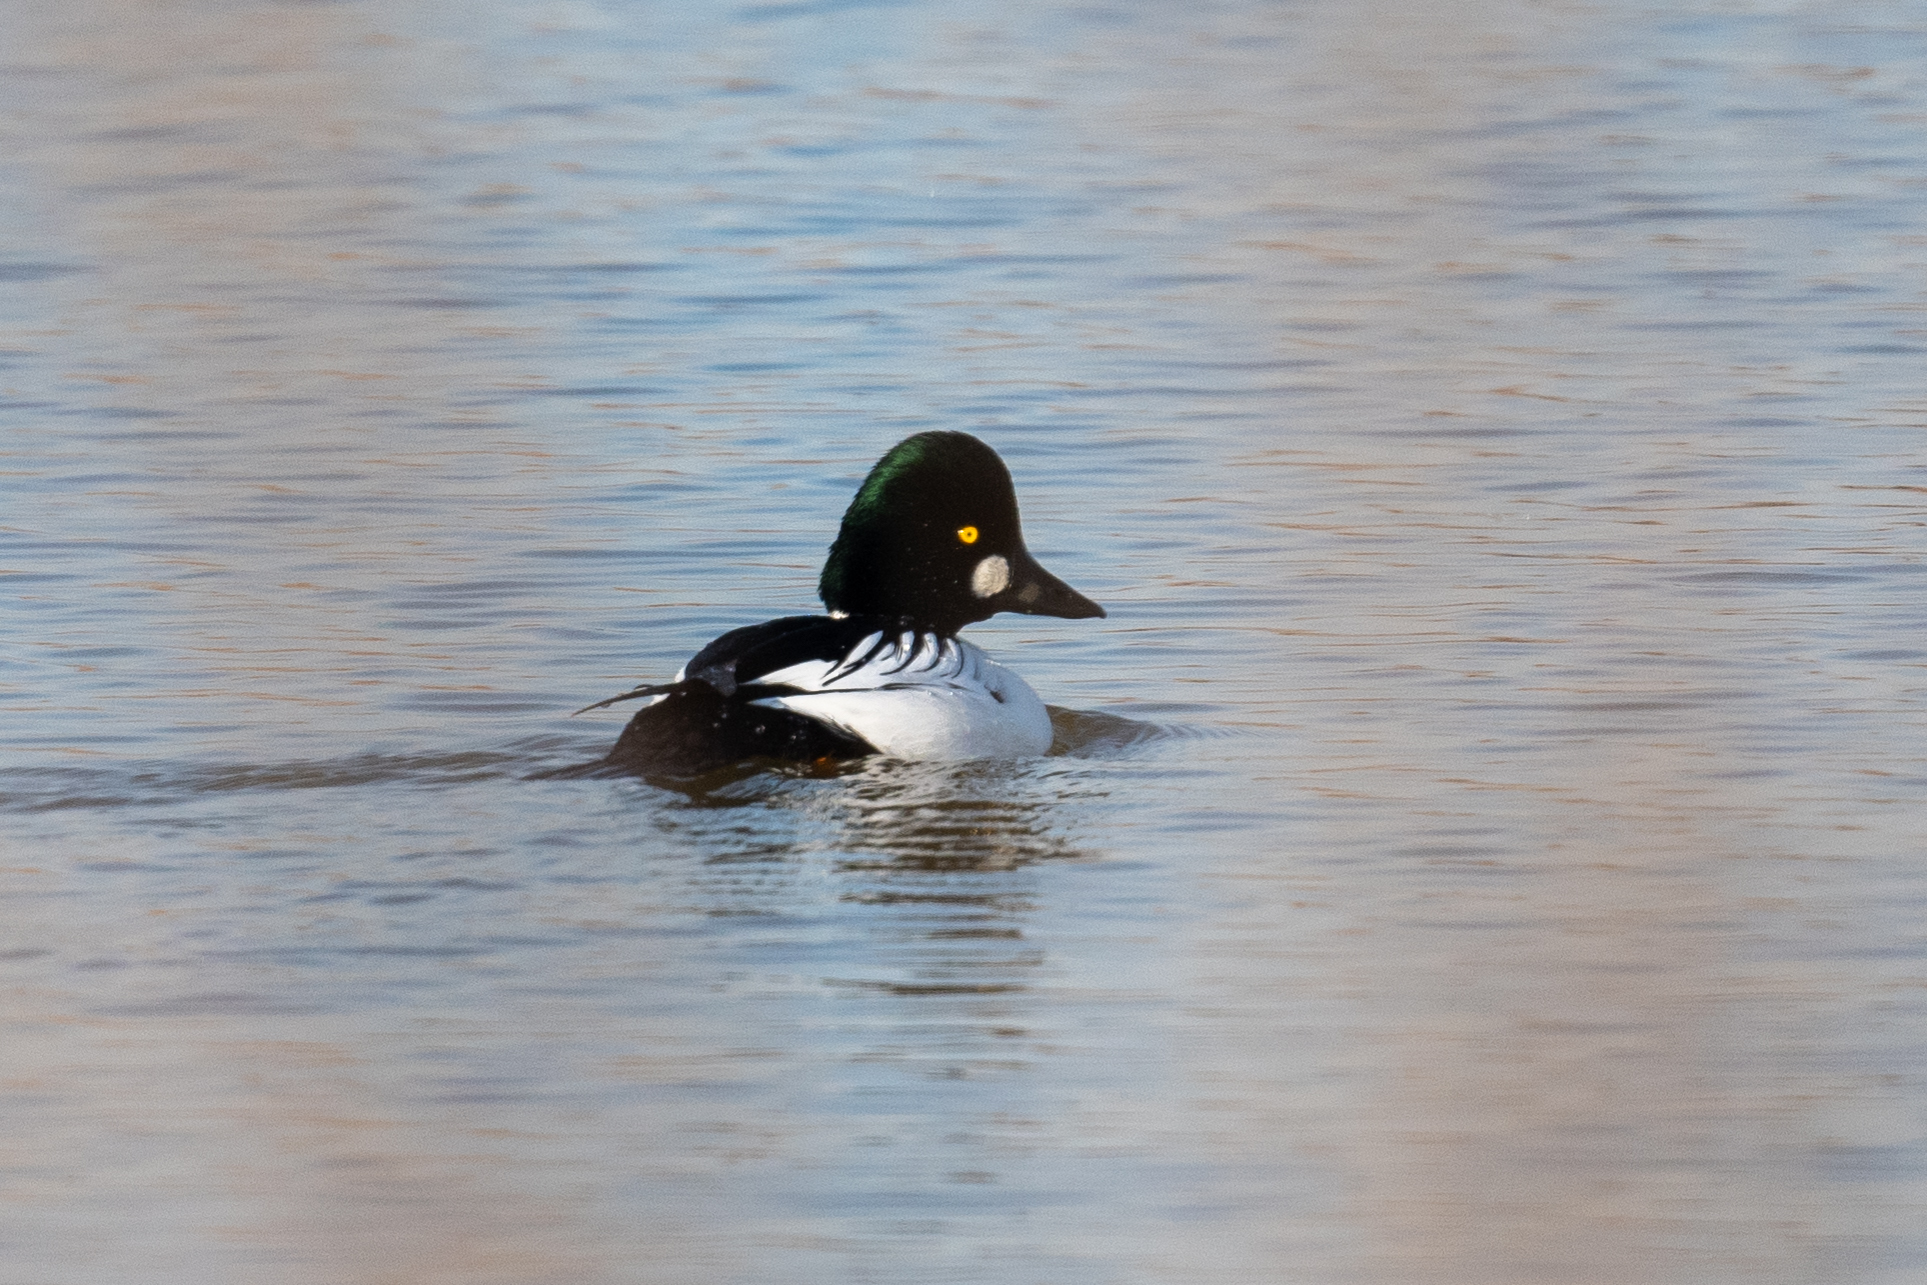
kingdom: Animalia
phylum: Chordata
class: Aves
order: Anseriformes
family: Anatidae
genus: Bucephala
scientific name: Bucephala clangula
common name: Common goldeneye
